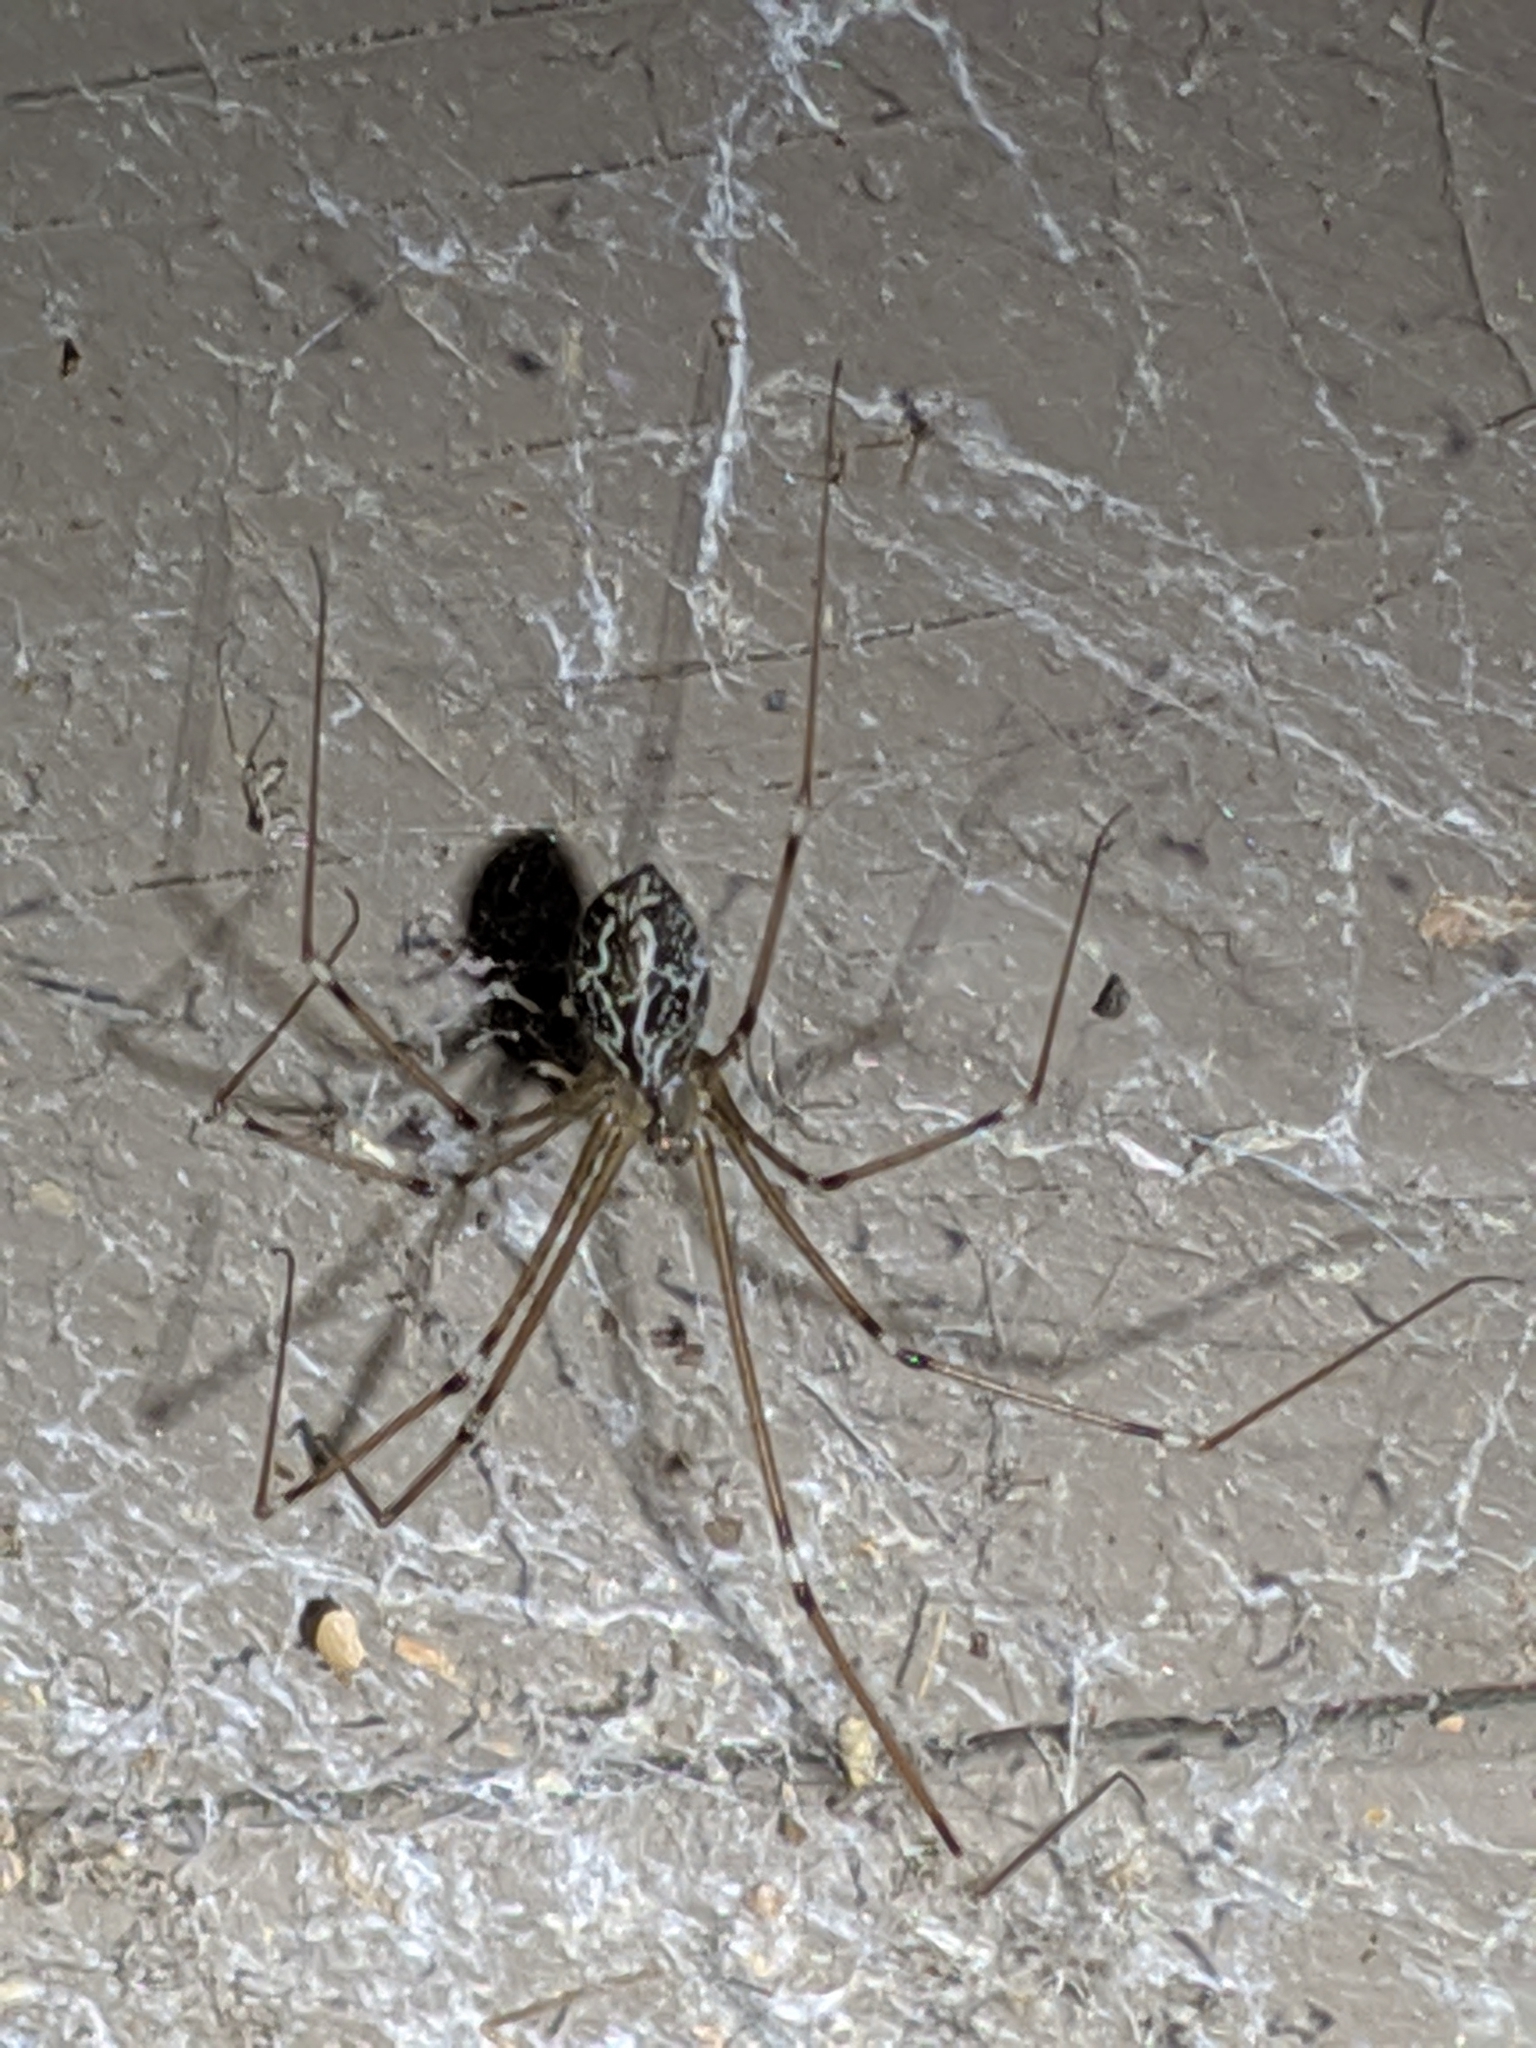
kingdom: Animalia
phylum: Arthropoda
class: Arachnida
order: Araneae
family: Pholcidae
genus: Holocnemus
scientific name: Holocnemus pluchei
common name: Marbled cellar spider
